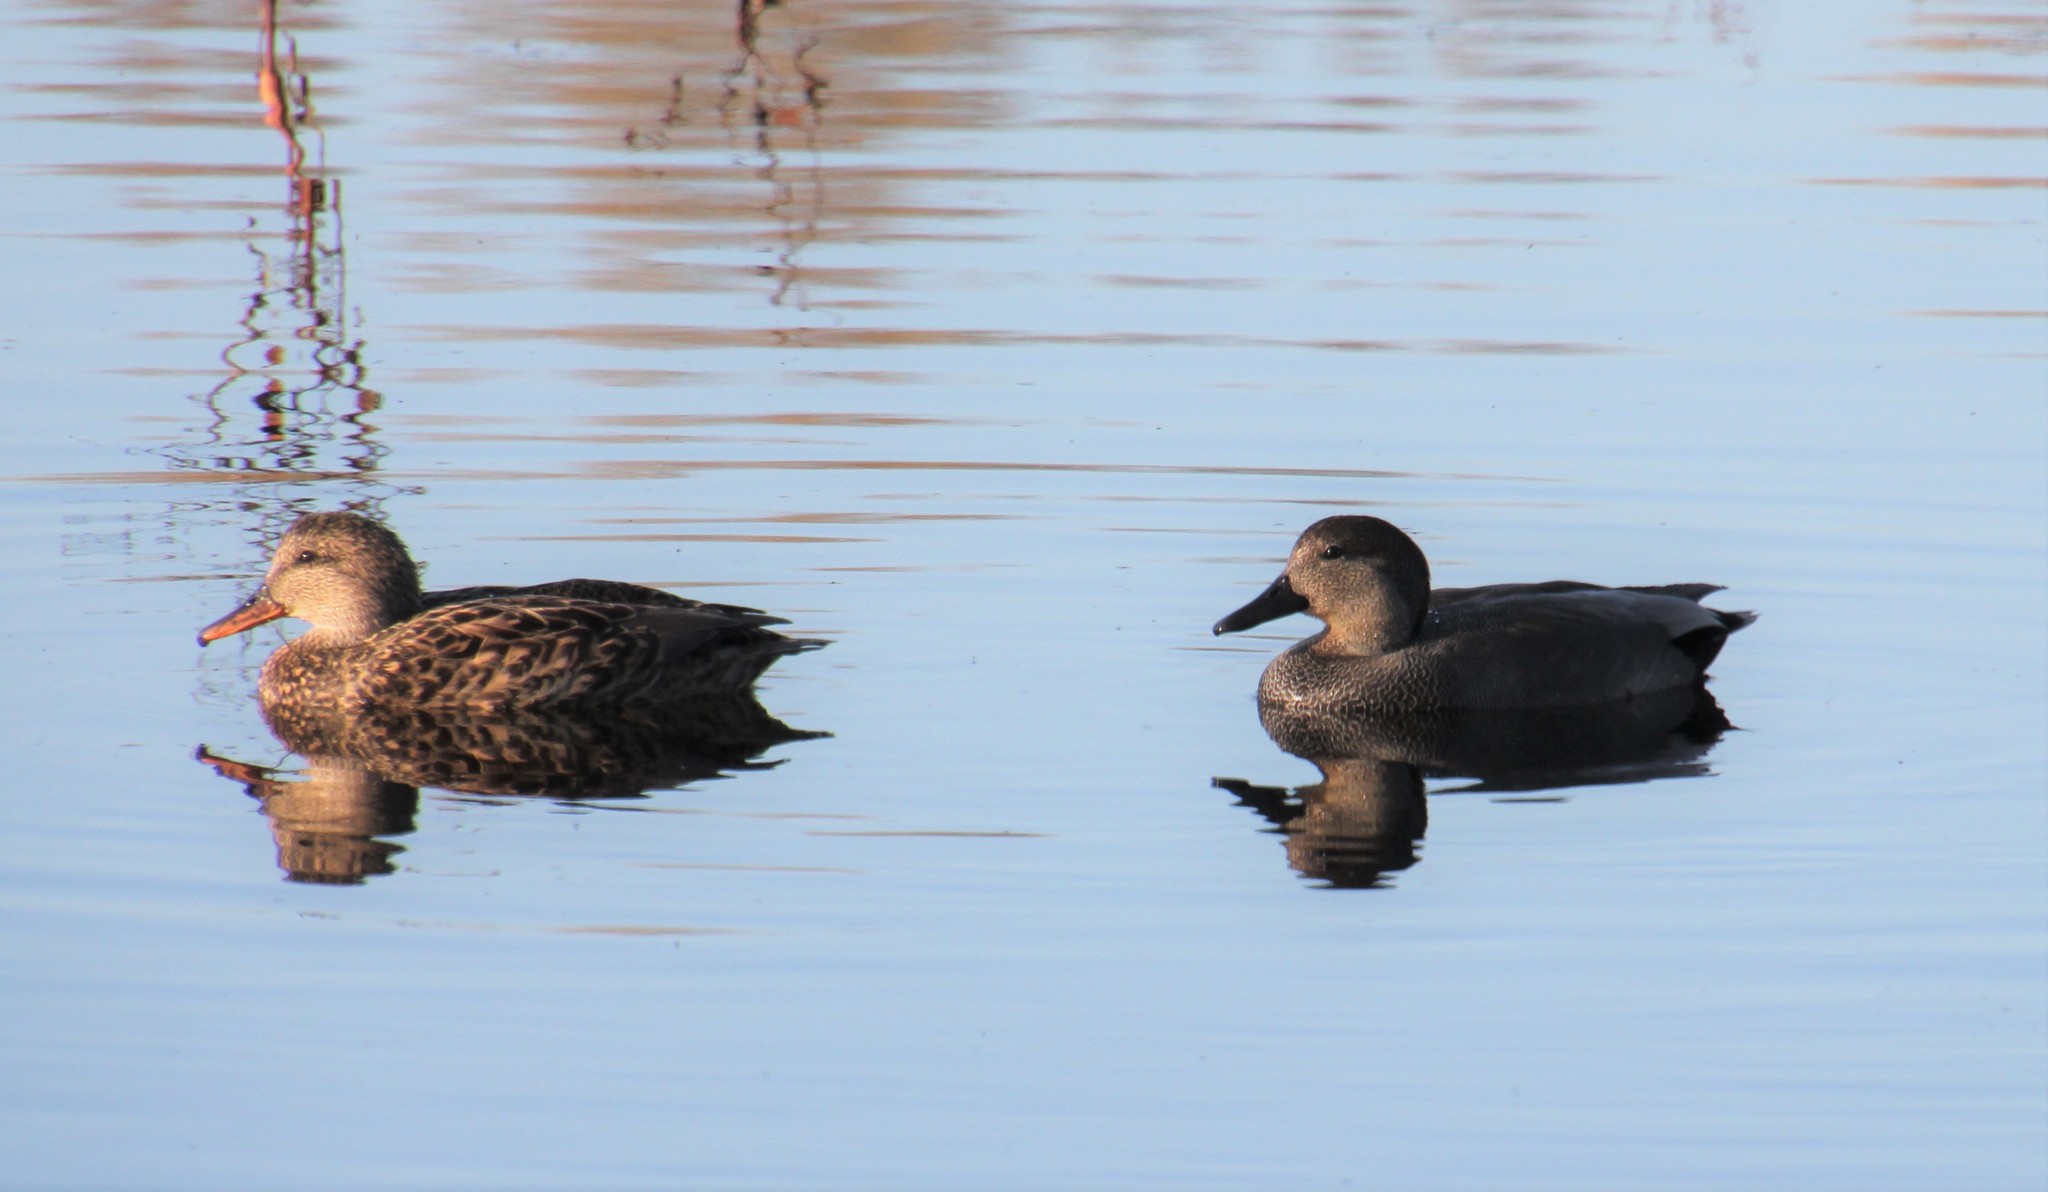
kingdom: Animalia
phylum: Chordata
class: Aves
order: Anseriformes
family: Anatidae
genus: Mareca
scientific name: Mareca strepera
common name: Gadwall
